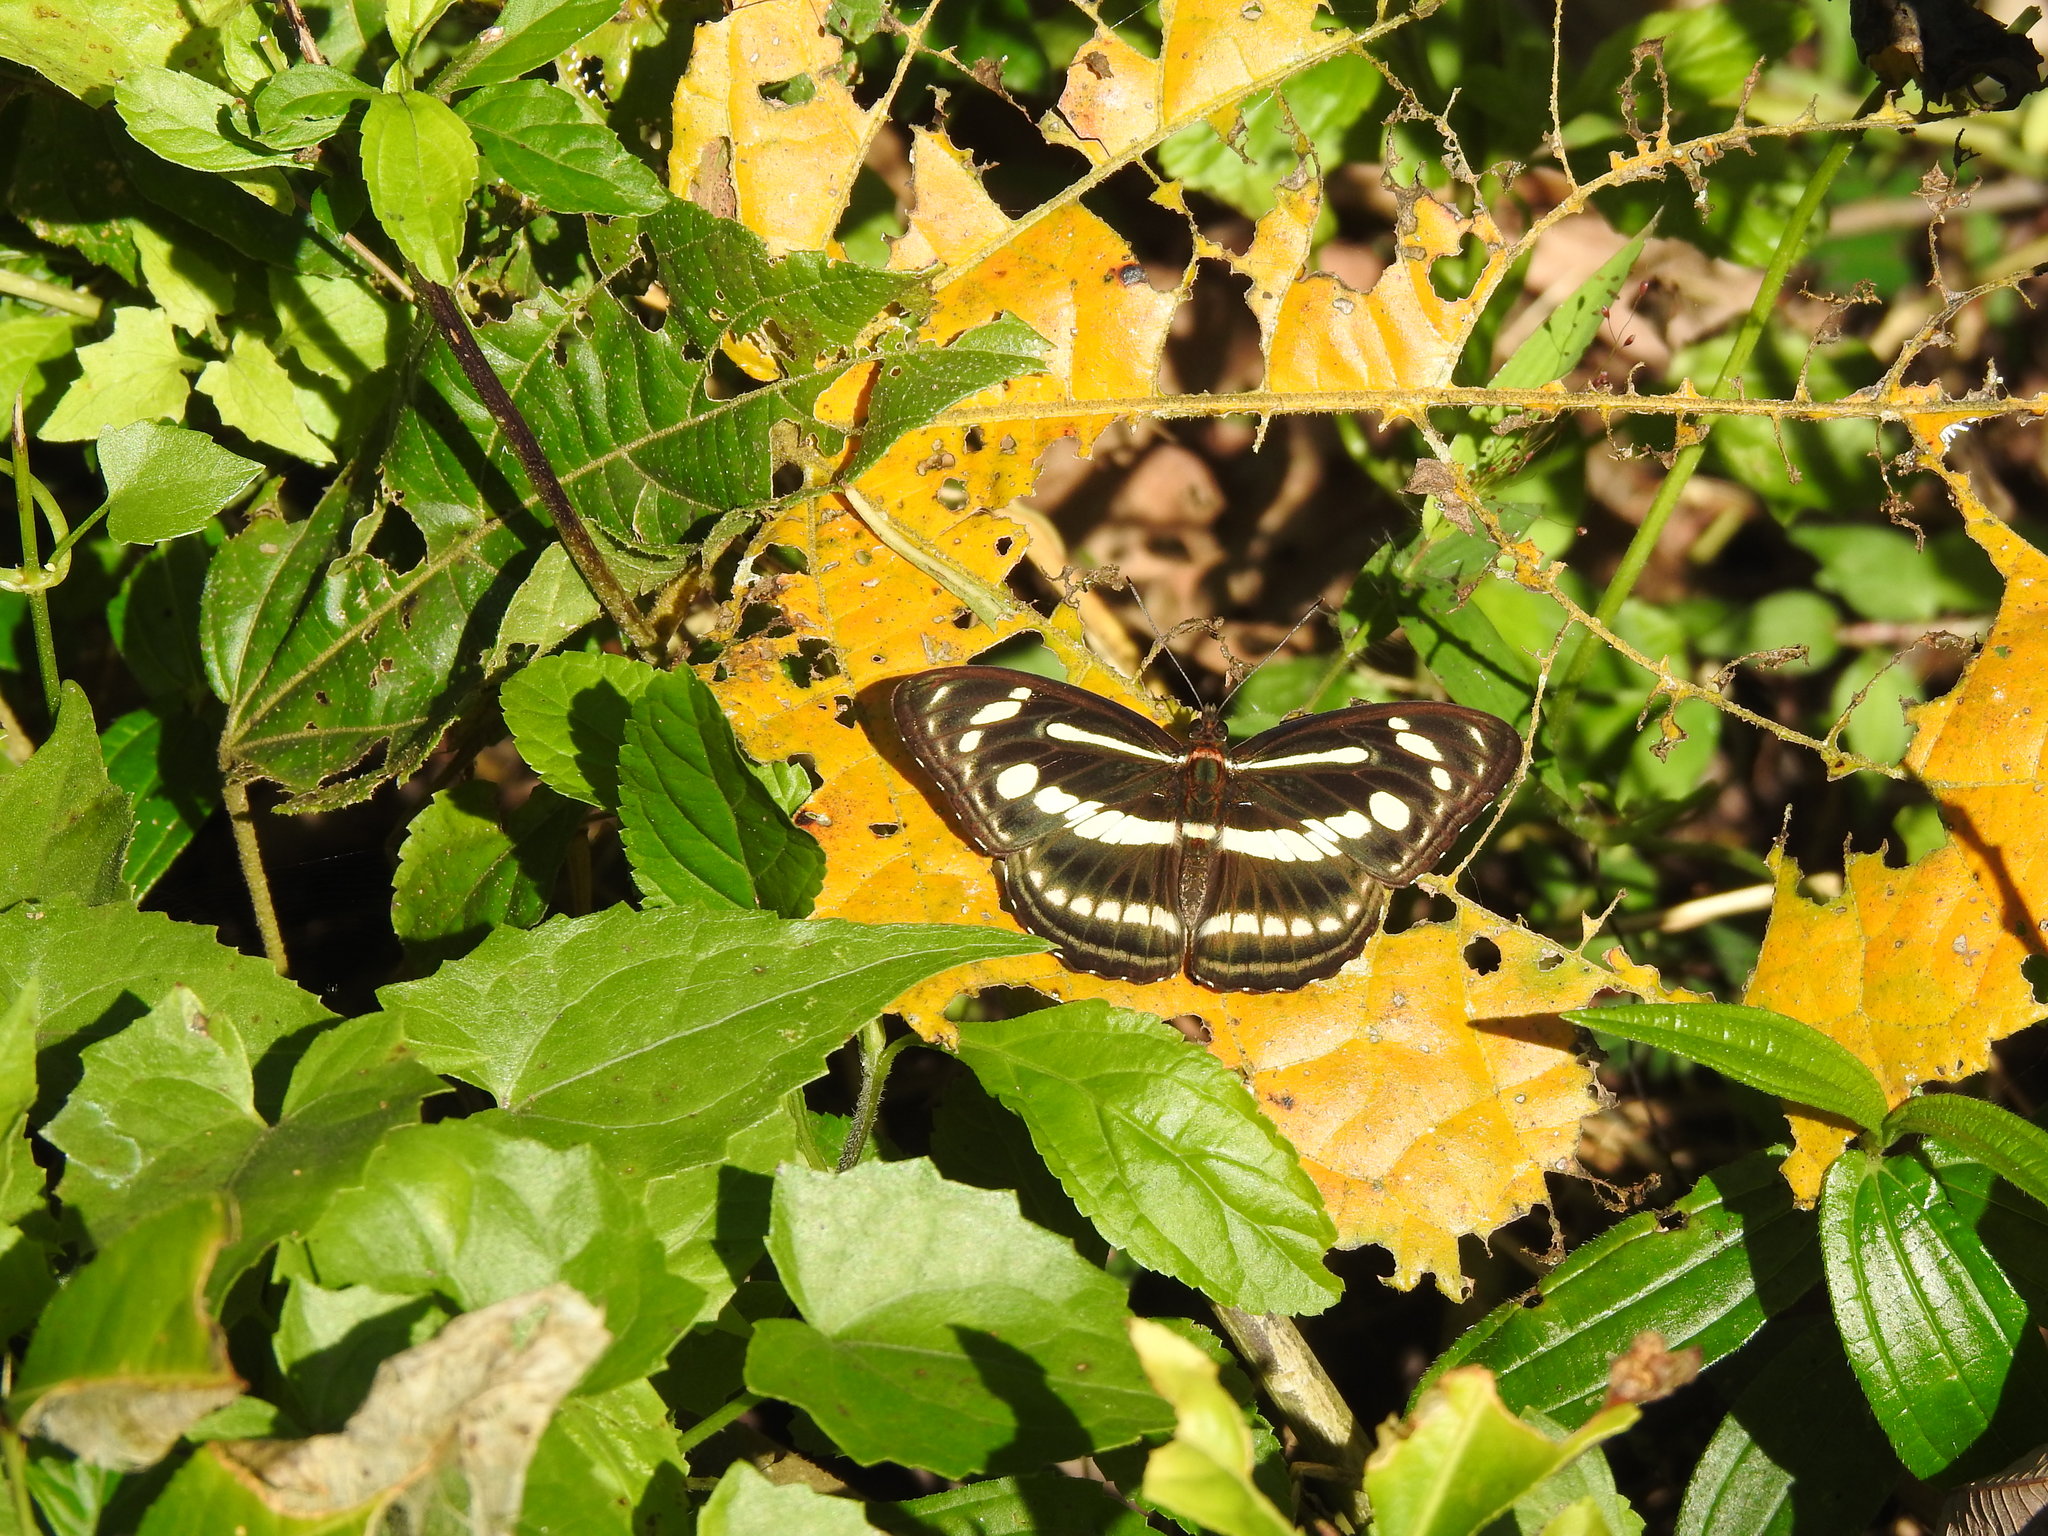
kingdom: Animalia
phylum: Arthropoda
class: Insecta
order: Lepidoptera
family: Nymphalidae
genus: Parathyma
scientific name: Parathyma pravara
